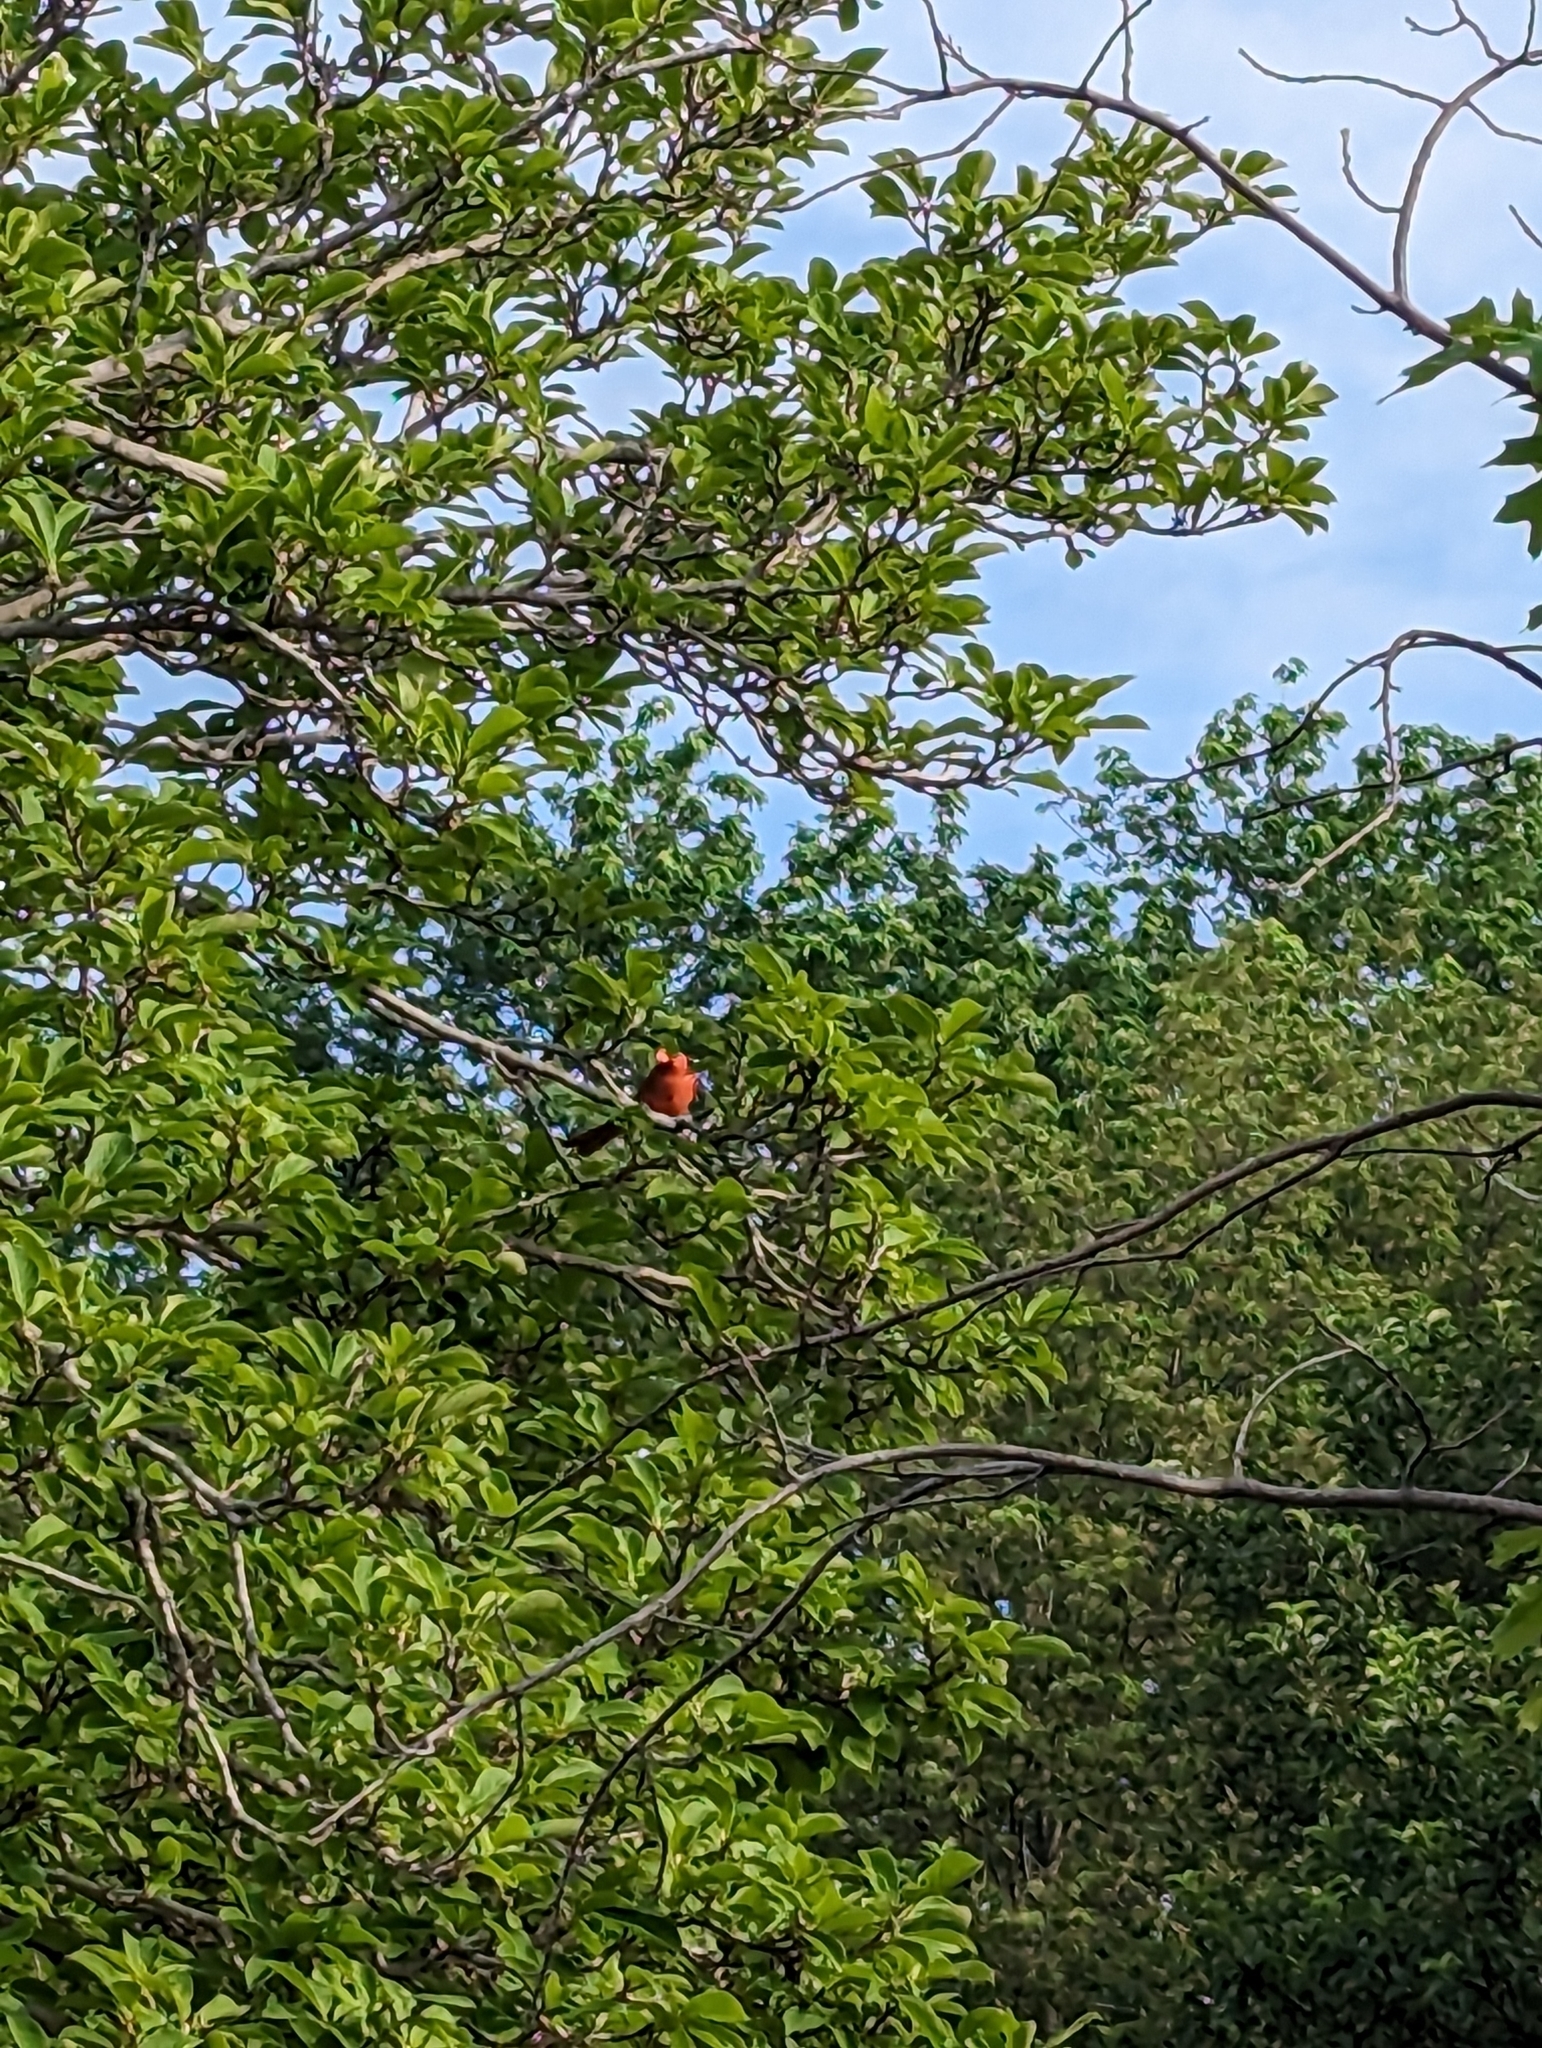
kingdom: Animalia
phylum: Chordata
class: Aves
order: Passeriformes
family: Cardinalidae
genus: Cardinalis
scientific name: Cardinalis cardinalis
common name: Northern cardinal
